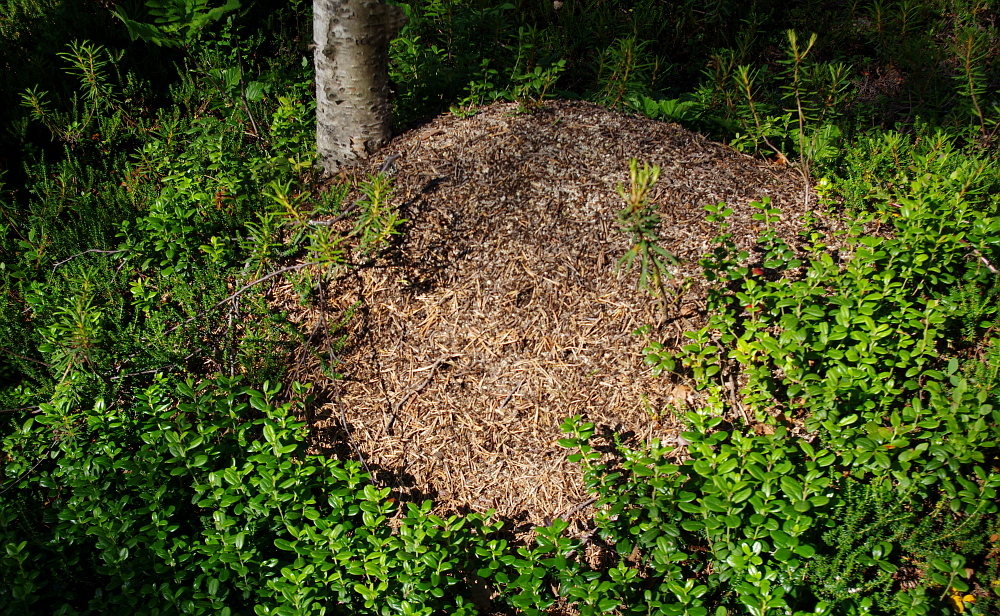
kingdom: Animalia
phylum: Arthropoda
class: Insecta
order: Hymenoptera
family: Formicidae
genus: Formica
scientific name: Formica
